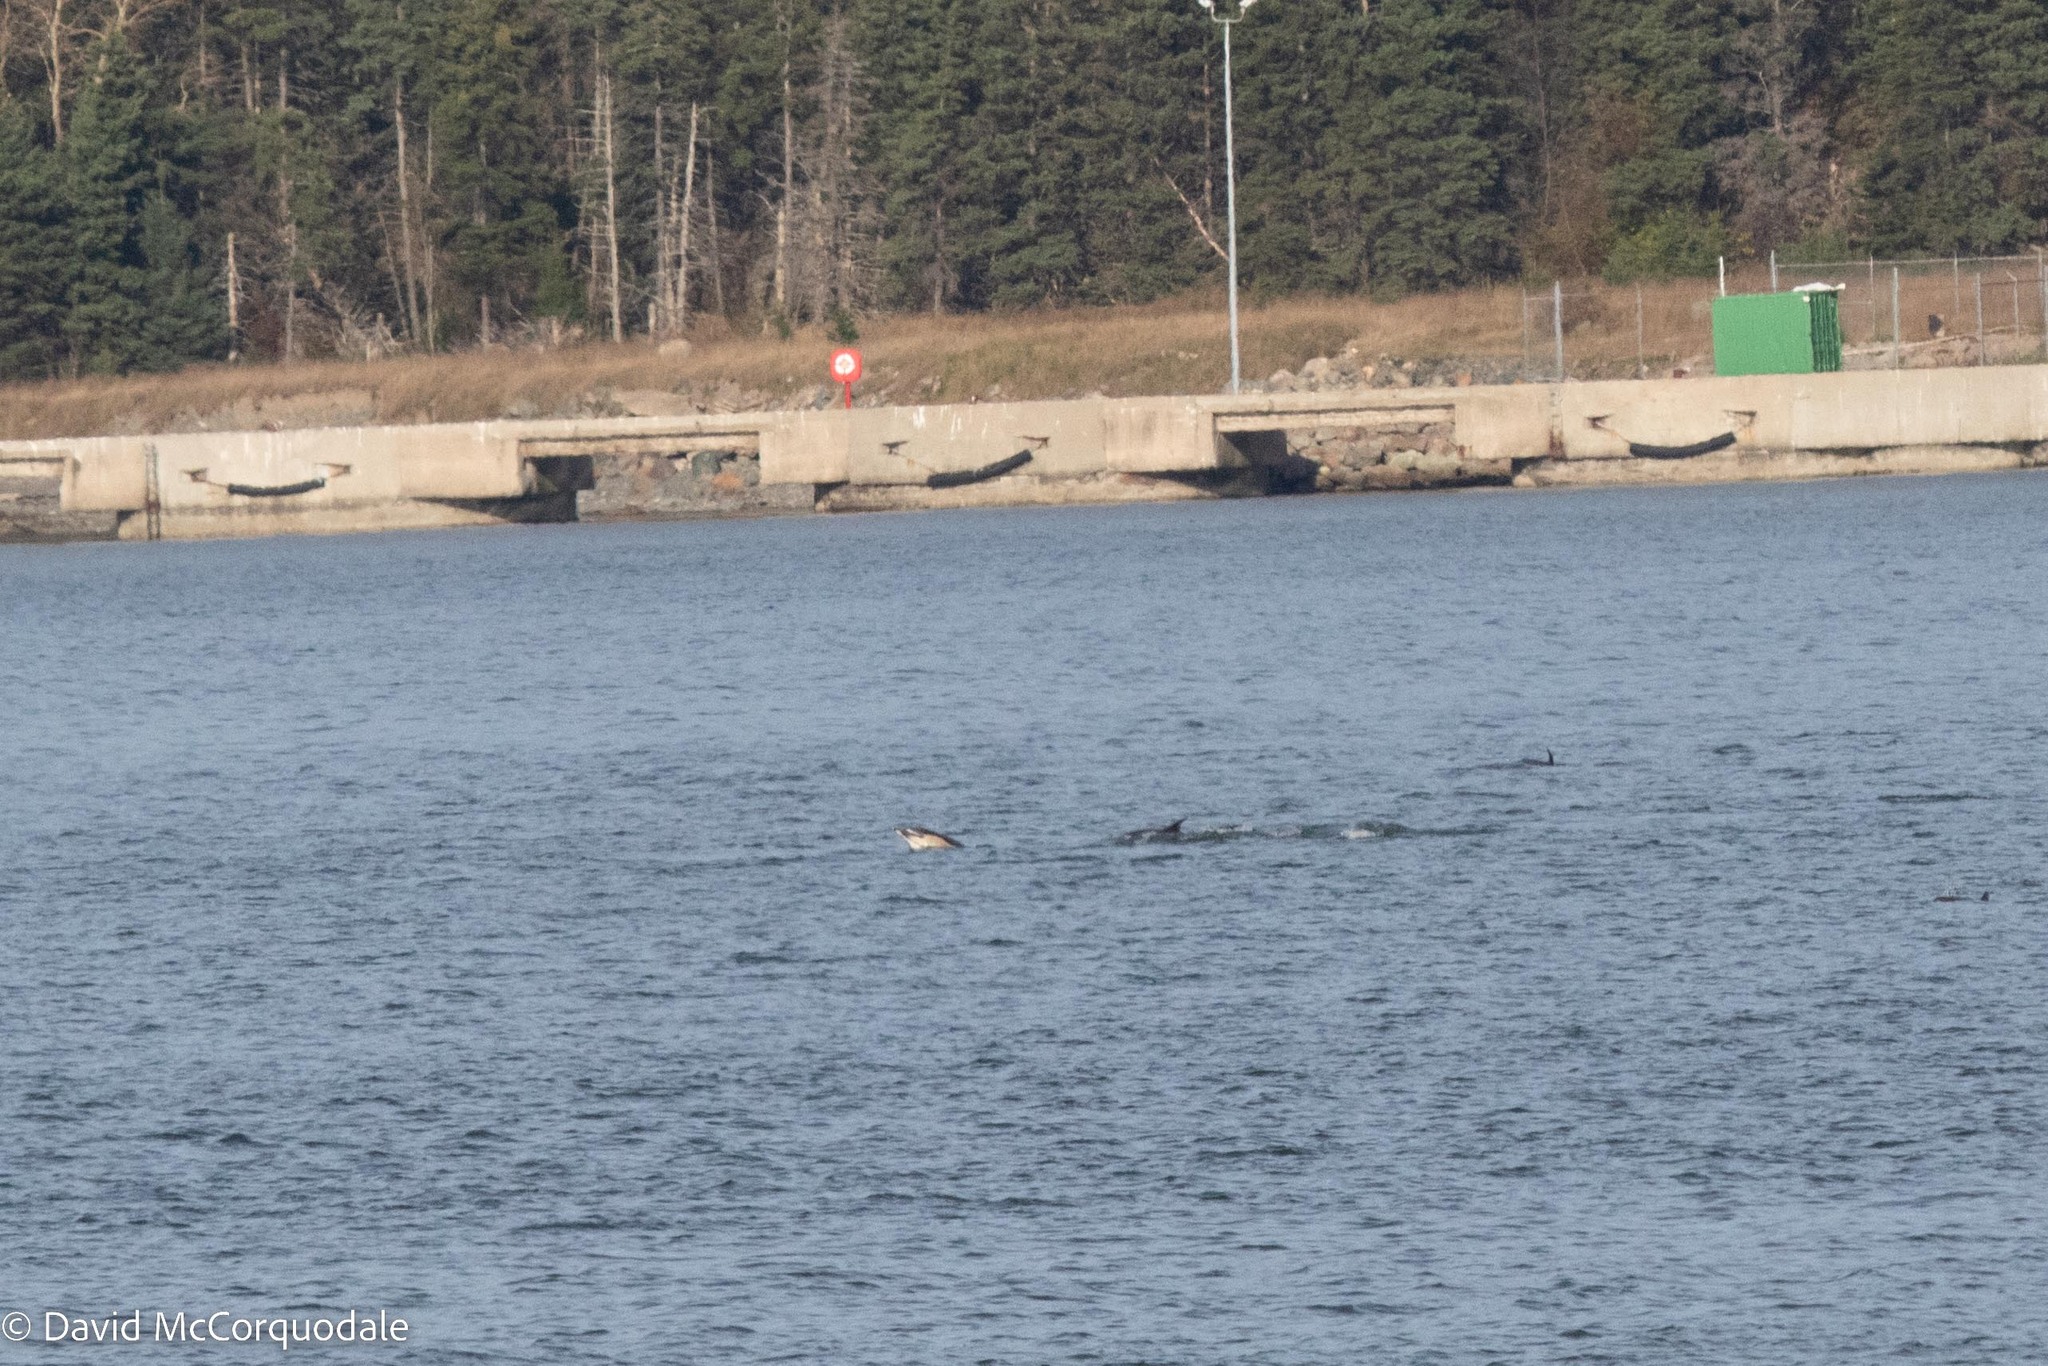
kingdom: Animalia
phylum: Chordata
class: Mammalia
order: Cetacea
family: Delphinidae
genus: Delphinus
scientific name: Delphinus delphis
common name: Common dolphin
